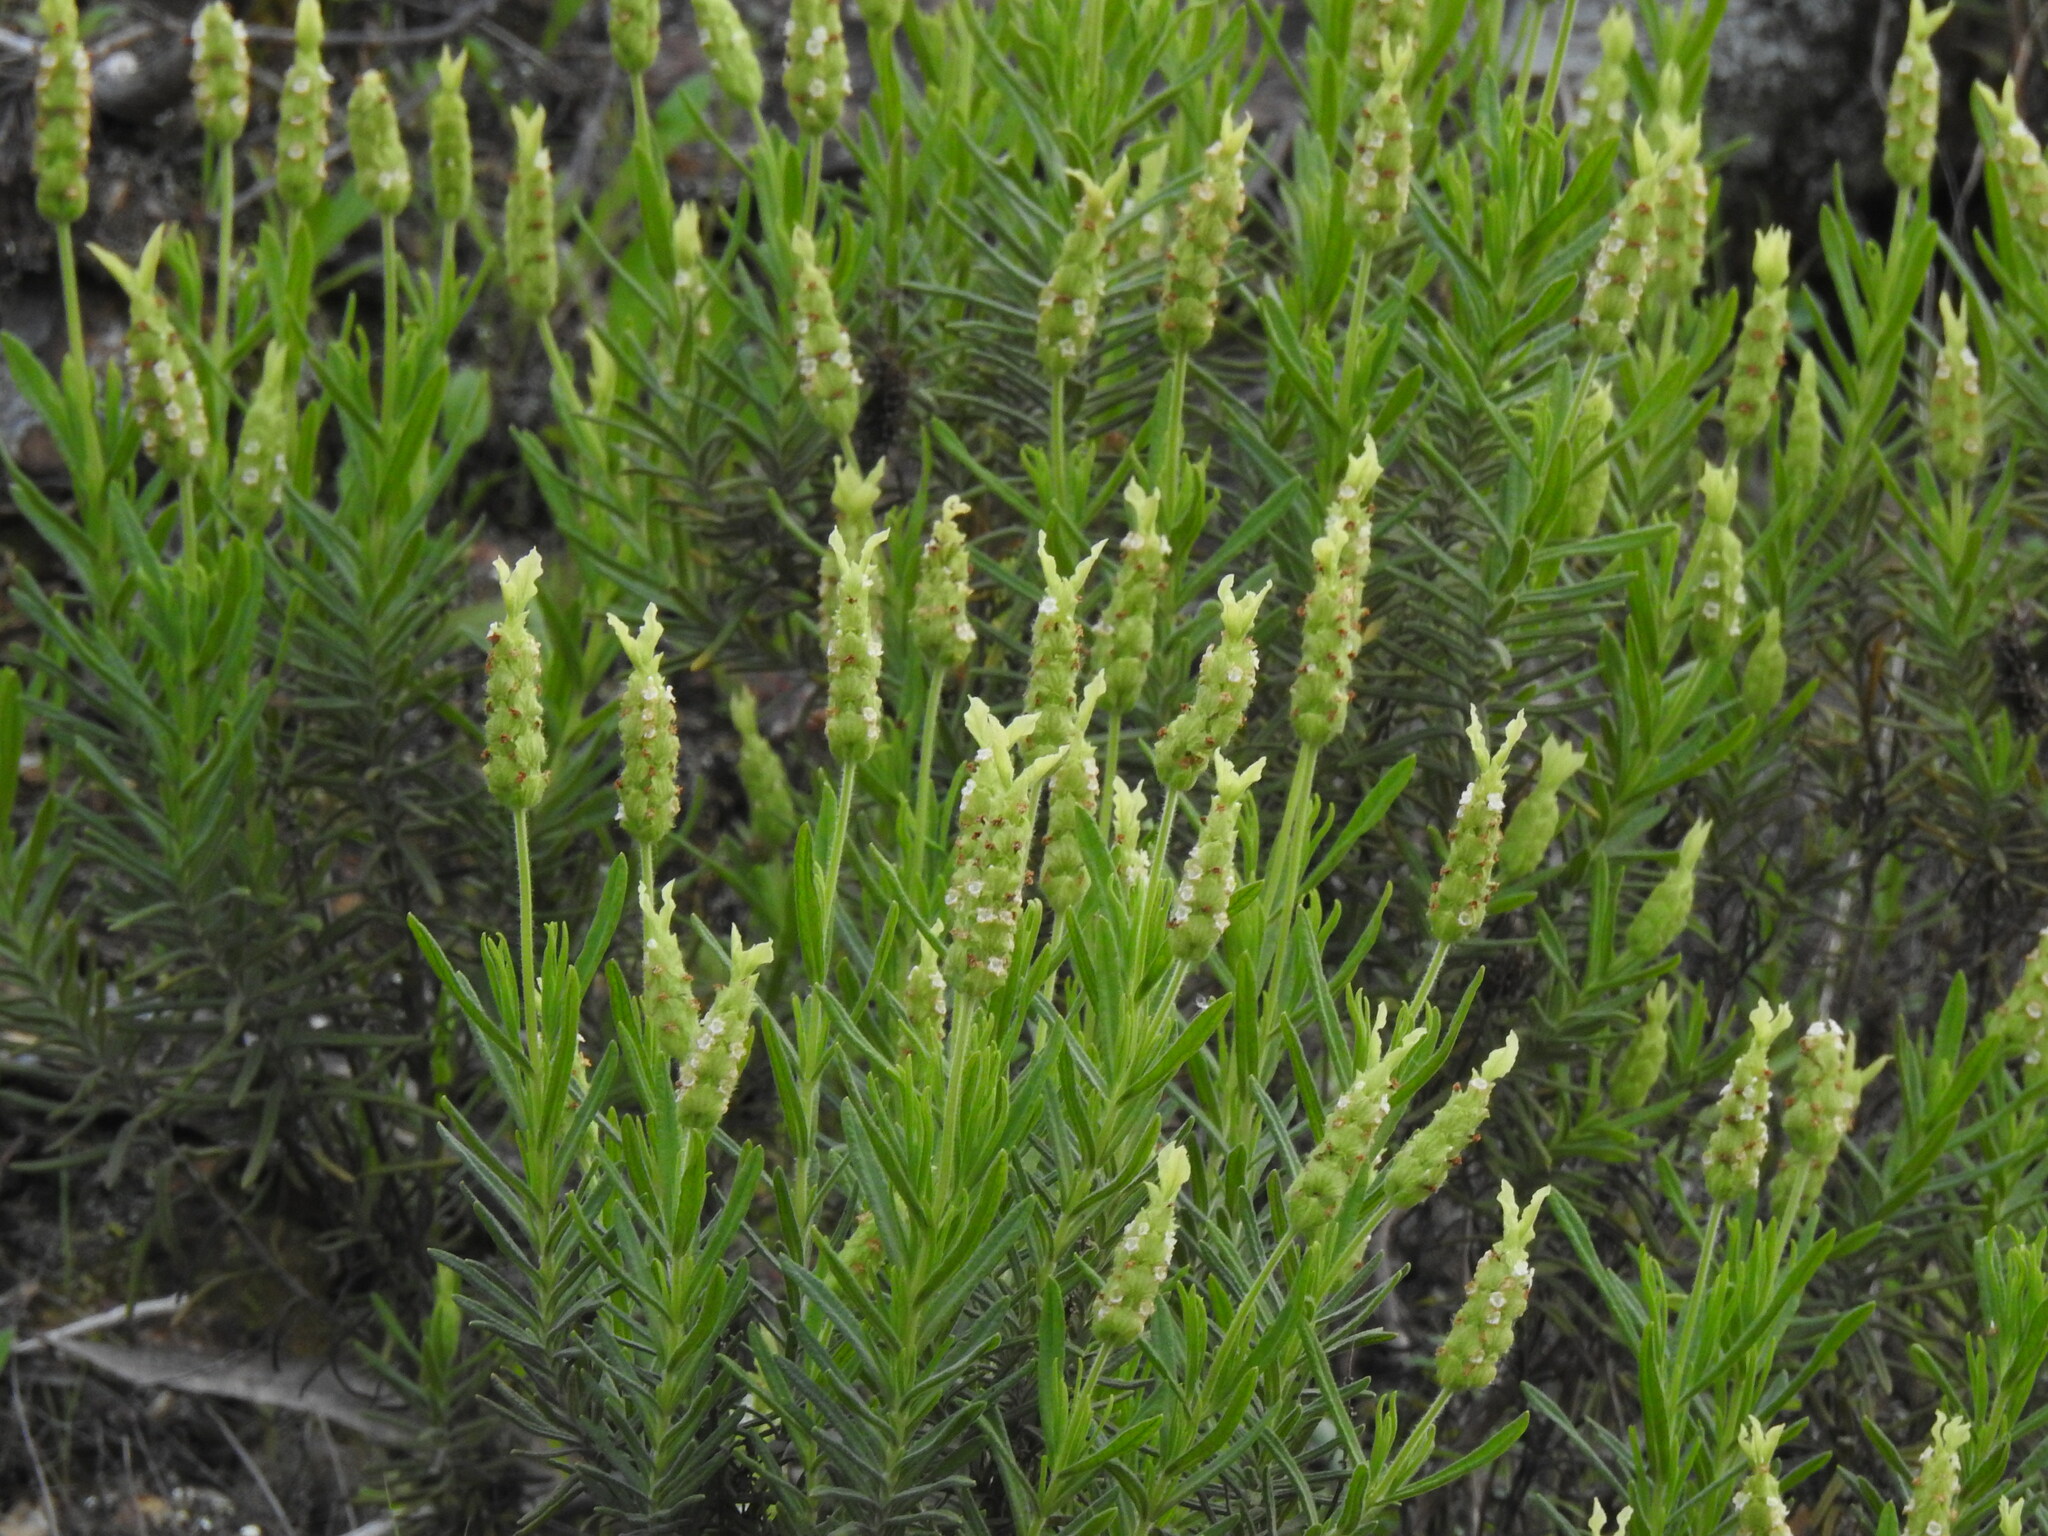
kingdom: Plantae
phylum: Tracheophyta
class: Magnoliopsida
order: Lamiales
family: Lamiaceae
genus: Lavandula
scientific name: Lavandula viridis
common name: Green spanish lavender
